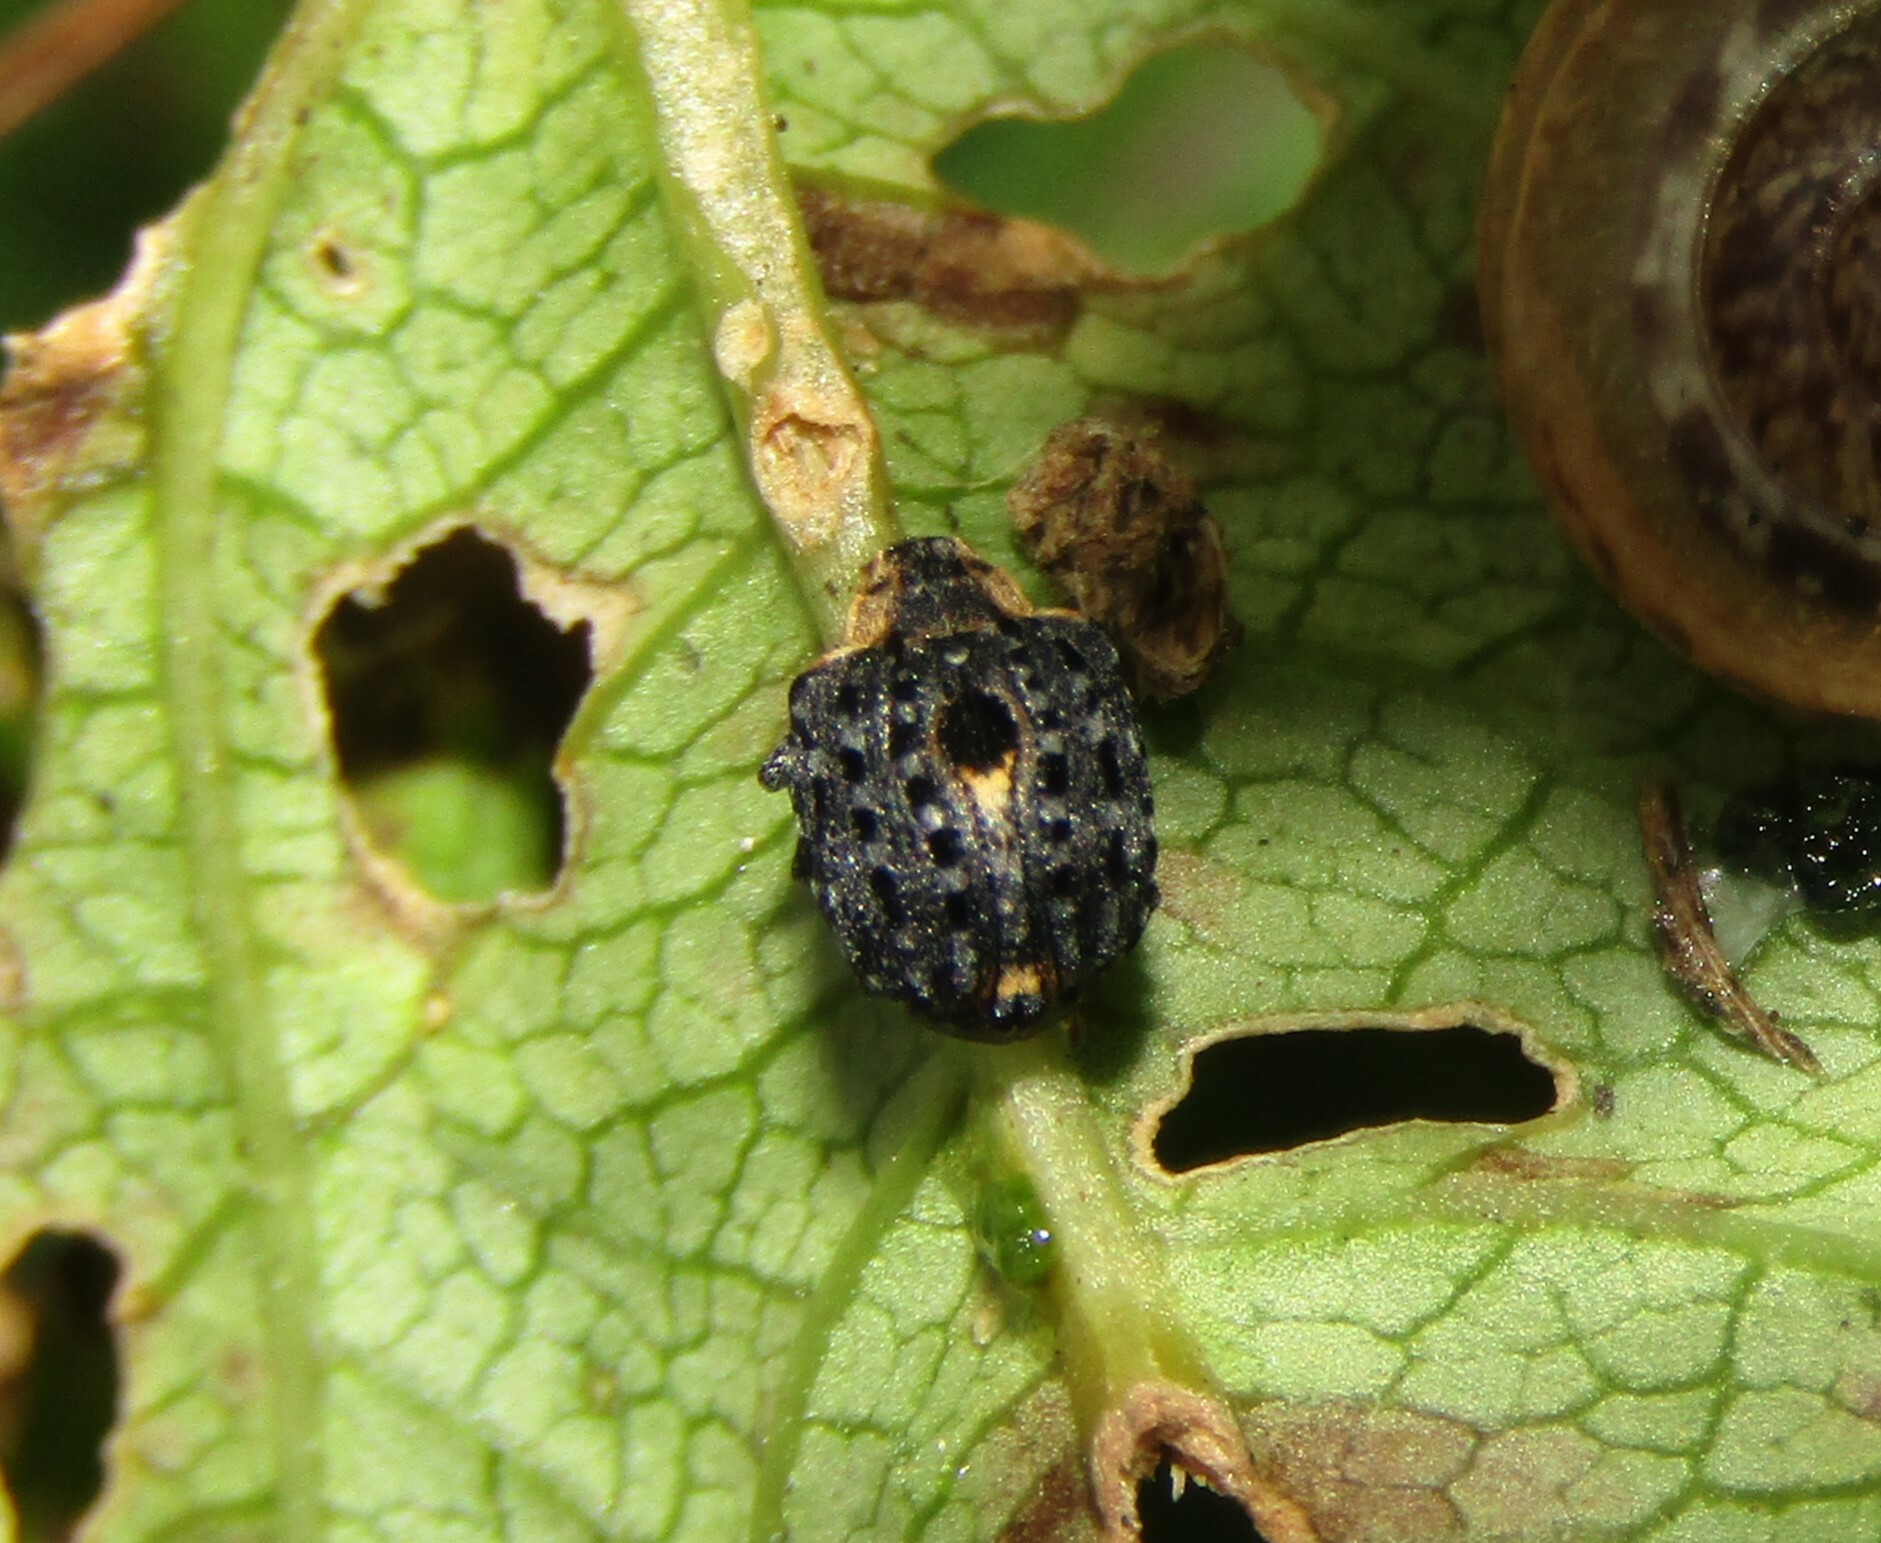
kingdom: Animalia
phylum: Arthropoda
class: Insecta
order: Coleoptera
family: Curculionidae
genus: Cionus
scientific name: Cionus tuberculosus
